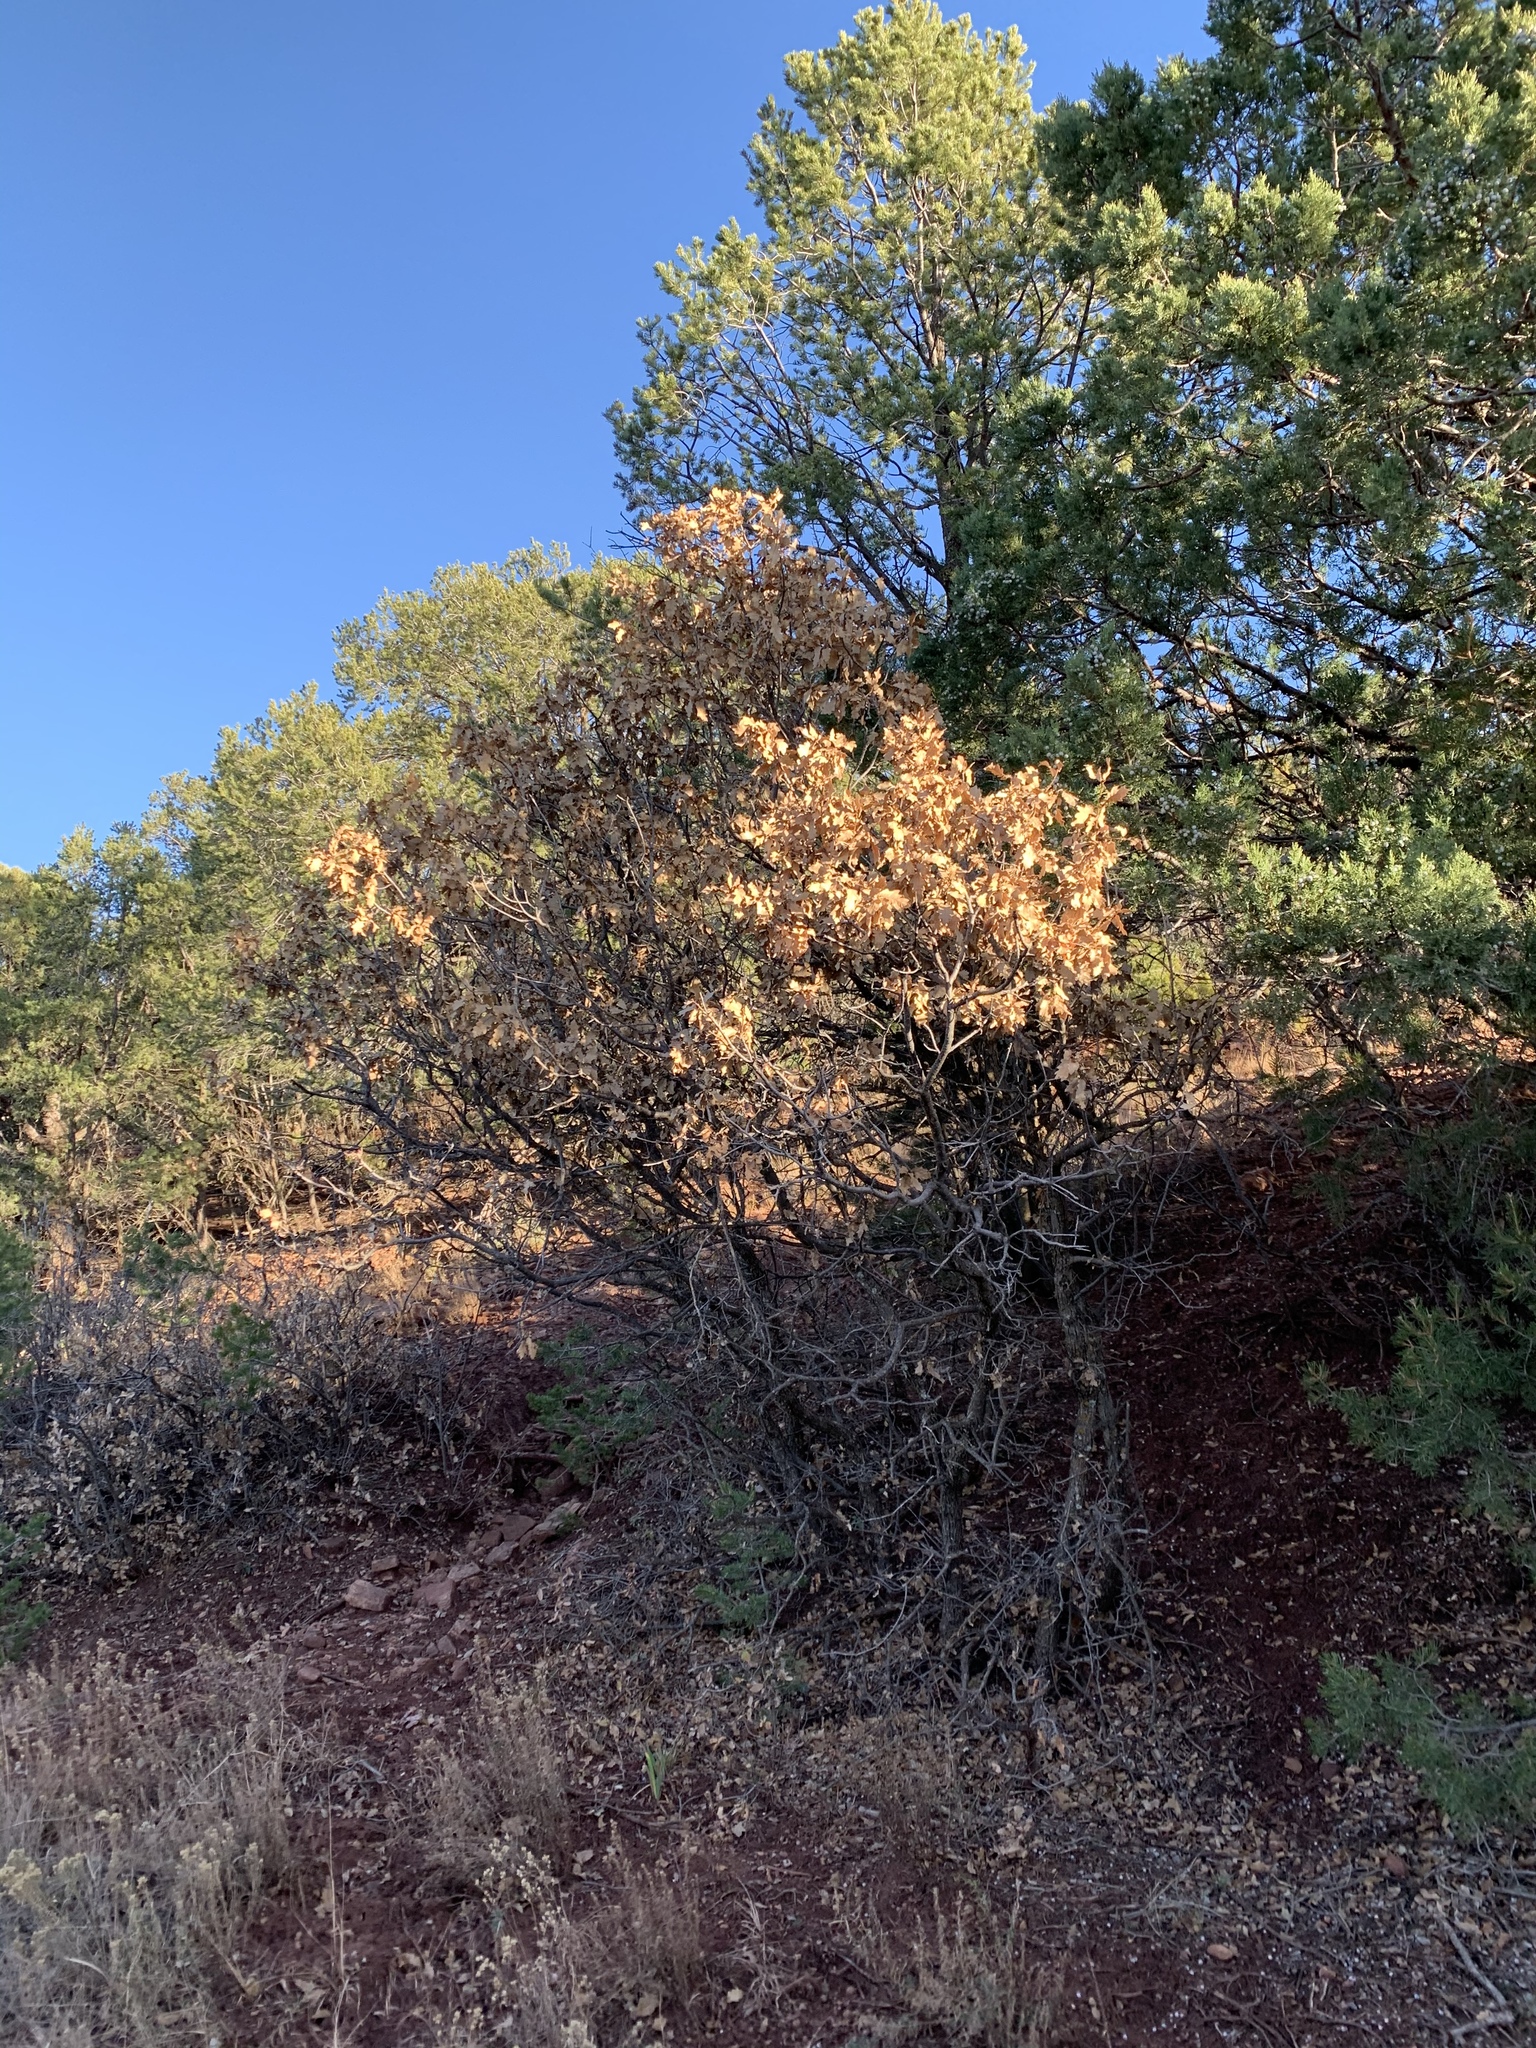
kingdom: Plantae
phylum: Tracheophyta
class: Magnoliopsida
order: Fagales
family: Fagaceae
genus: Quercus
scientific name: Quercus gambelii
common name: Gambel oak
